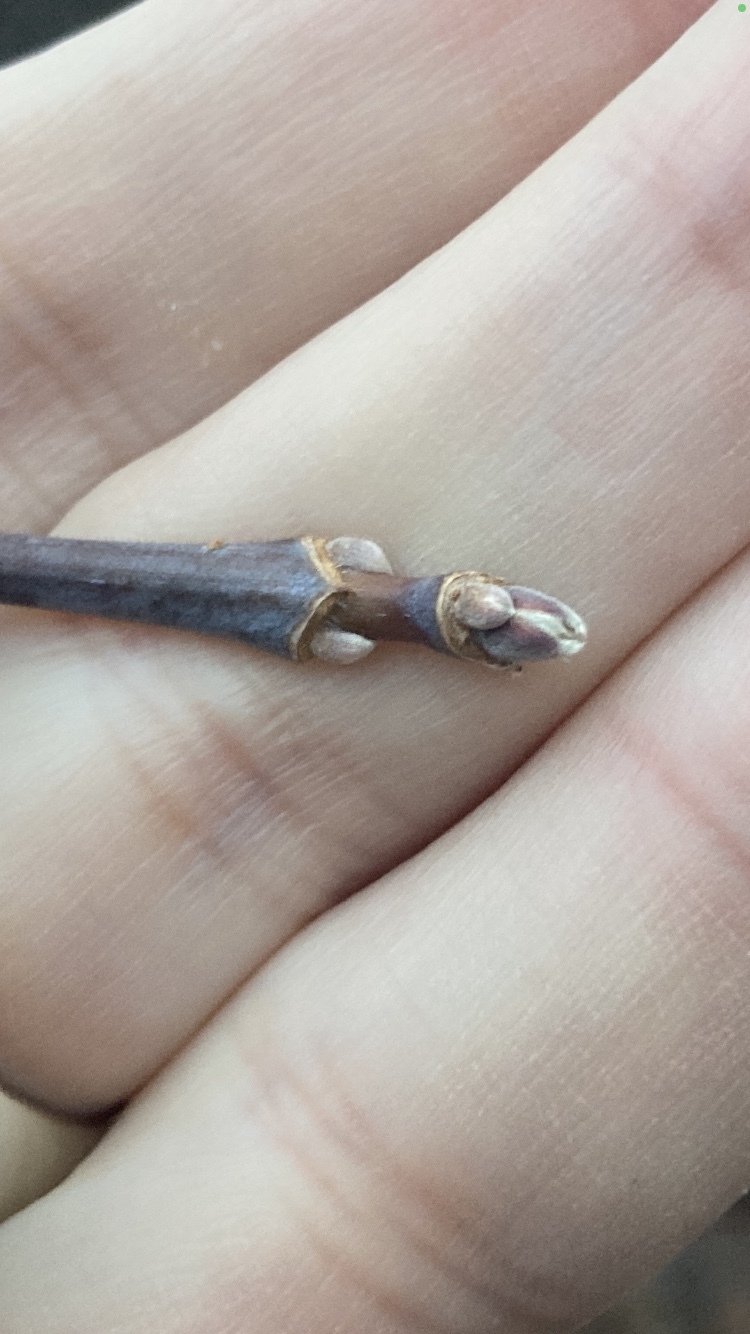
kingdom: Plantae
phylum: Tracheophyta
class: Magnoliopsida
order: Sapindales
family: Sapindaceae
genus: Acer
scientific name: Acer negundo
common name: Ashleaf maple
